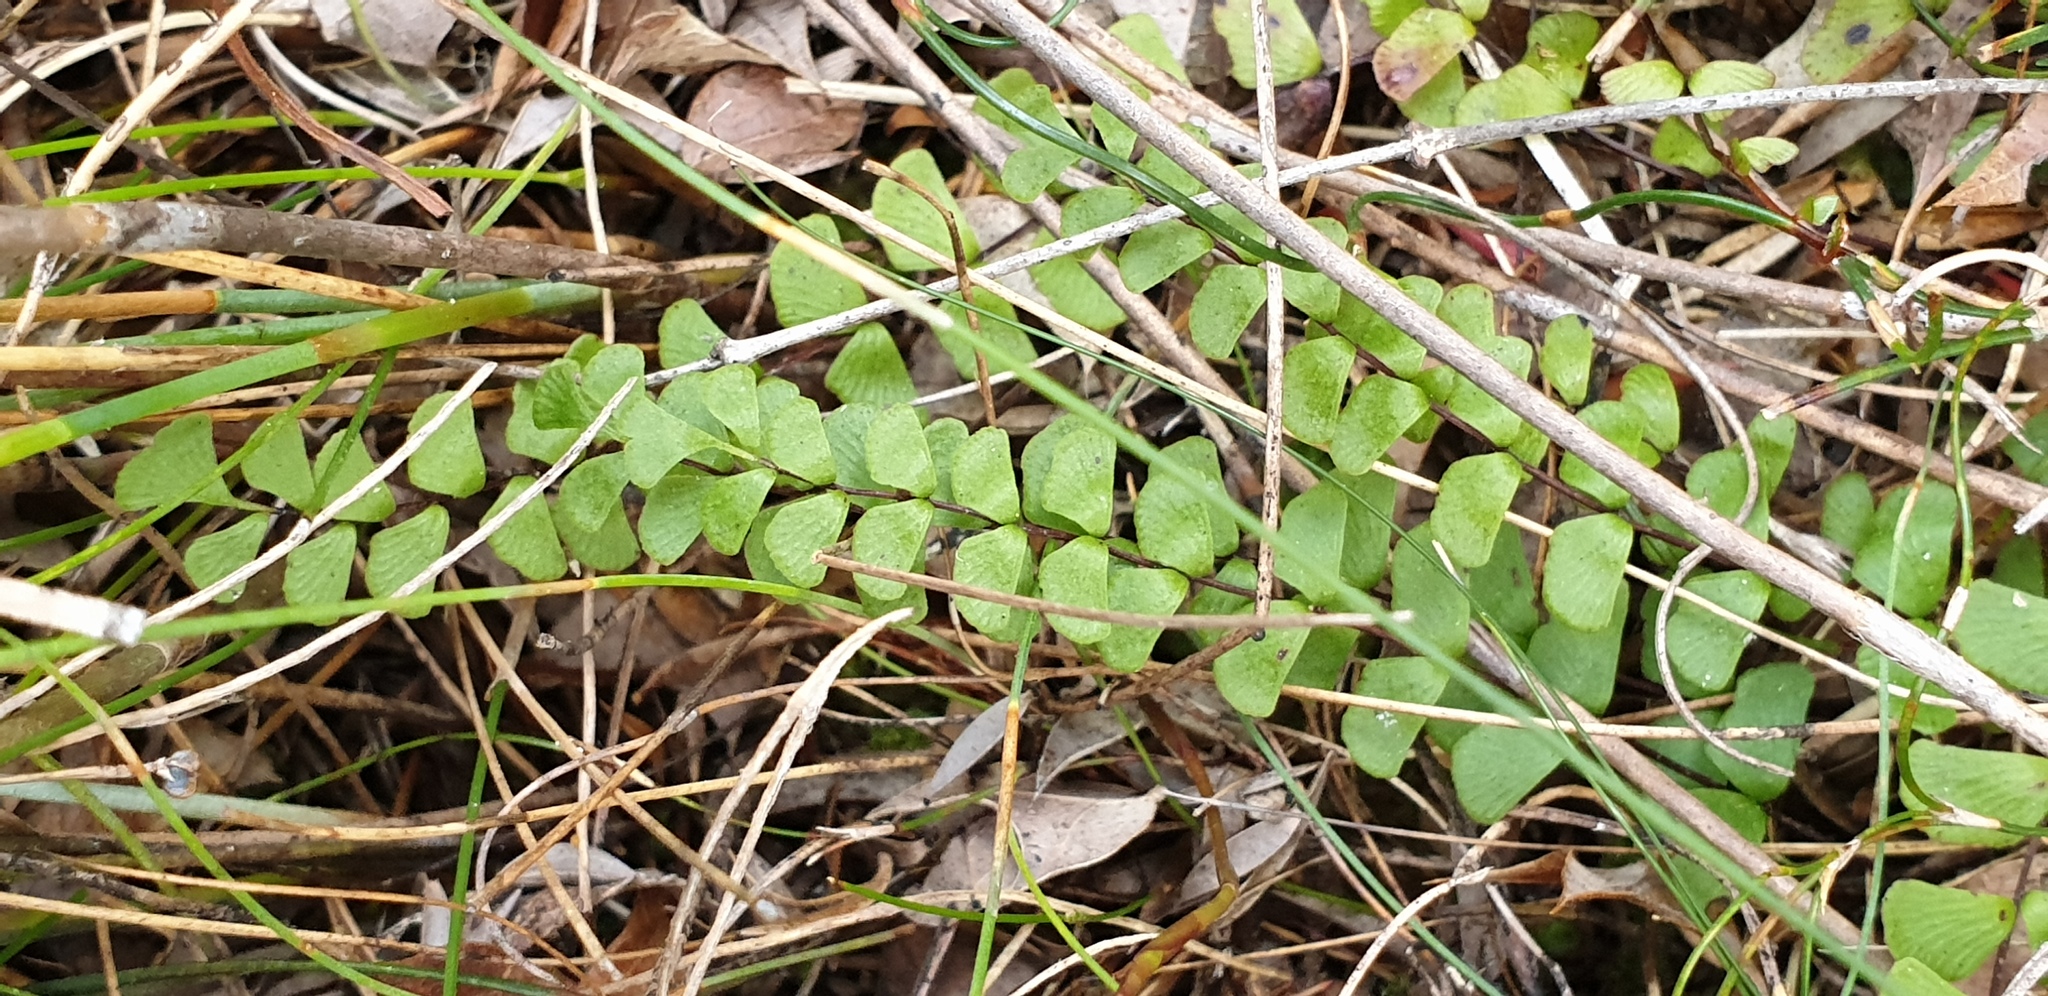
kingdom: Plantae
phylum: Tracheophyta
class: Polypodiopsida
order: Polypodiales
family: Lindsaeaceae
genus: Lindsaea
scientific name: Lindsaea linearis
